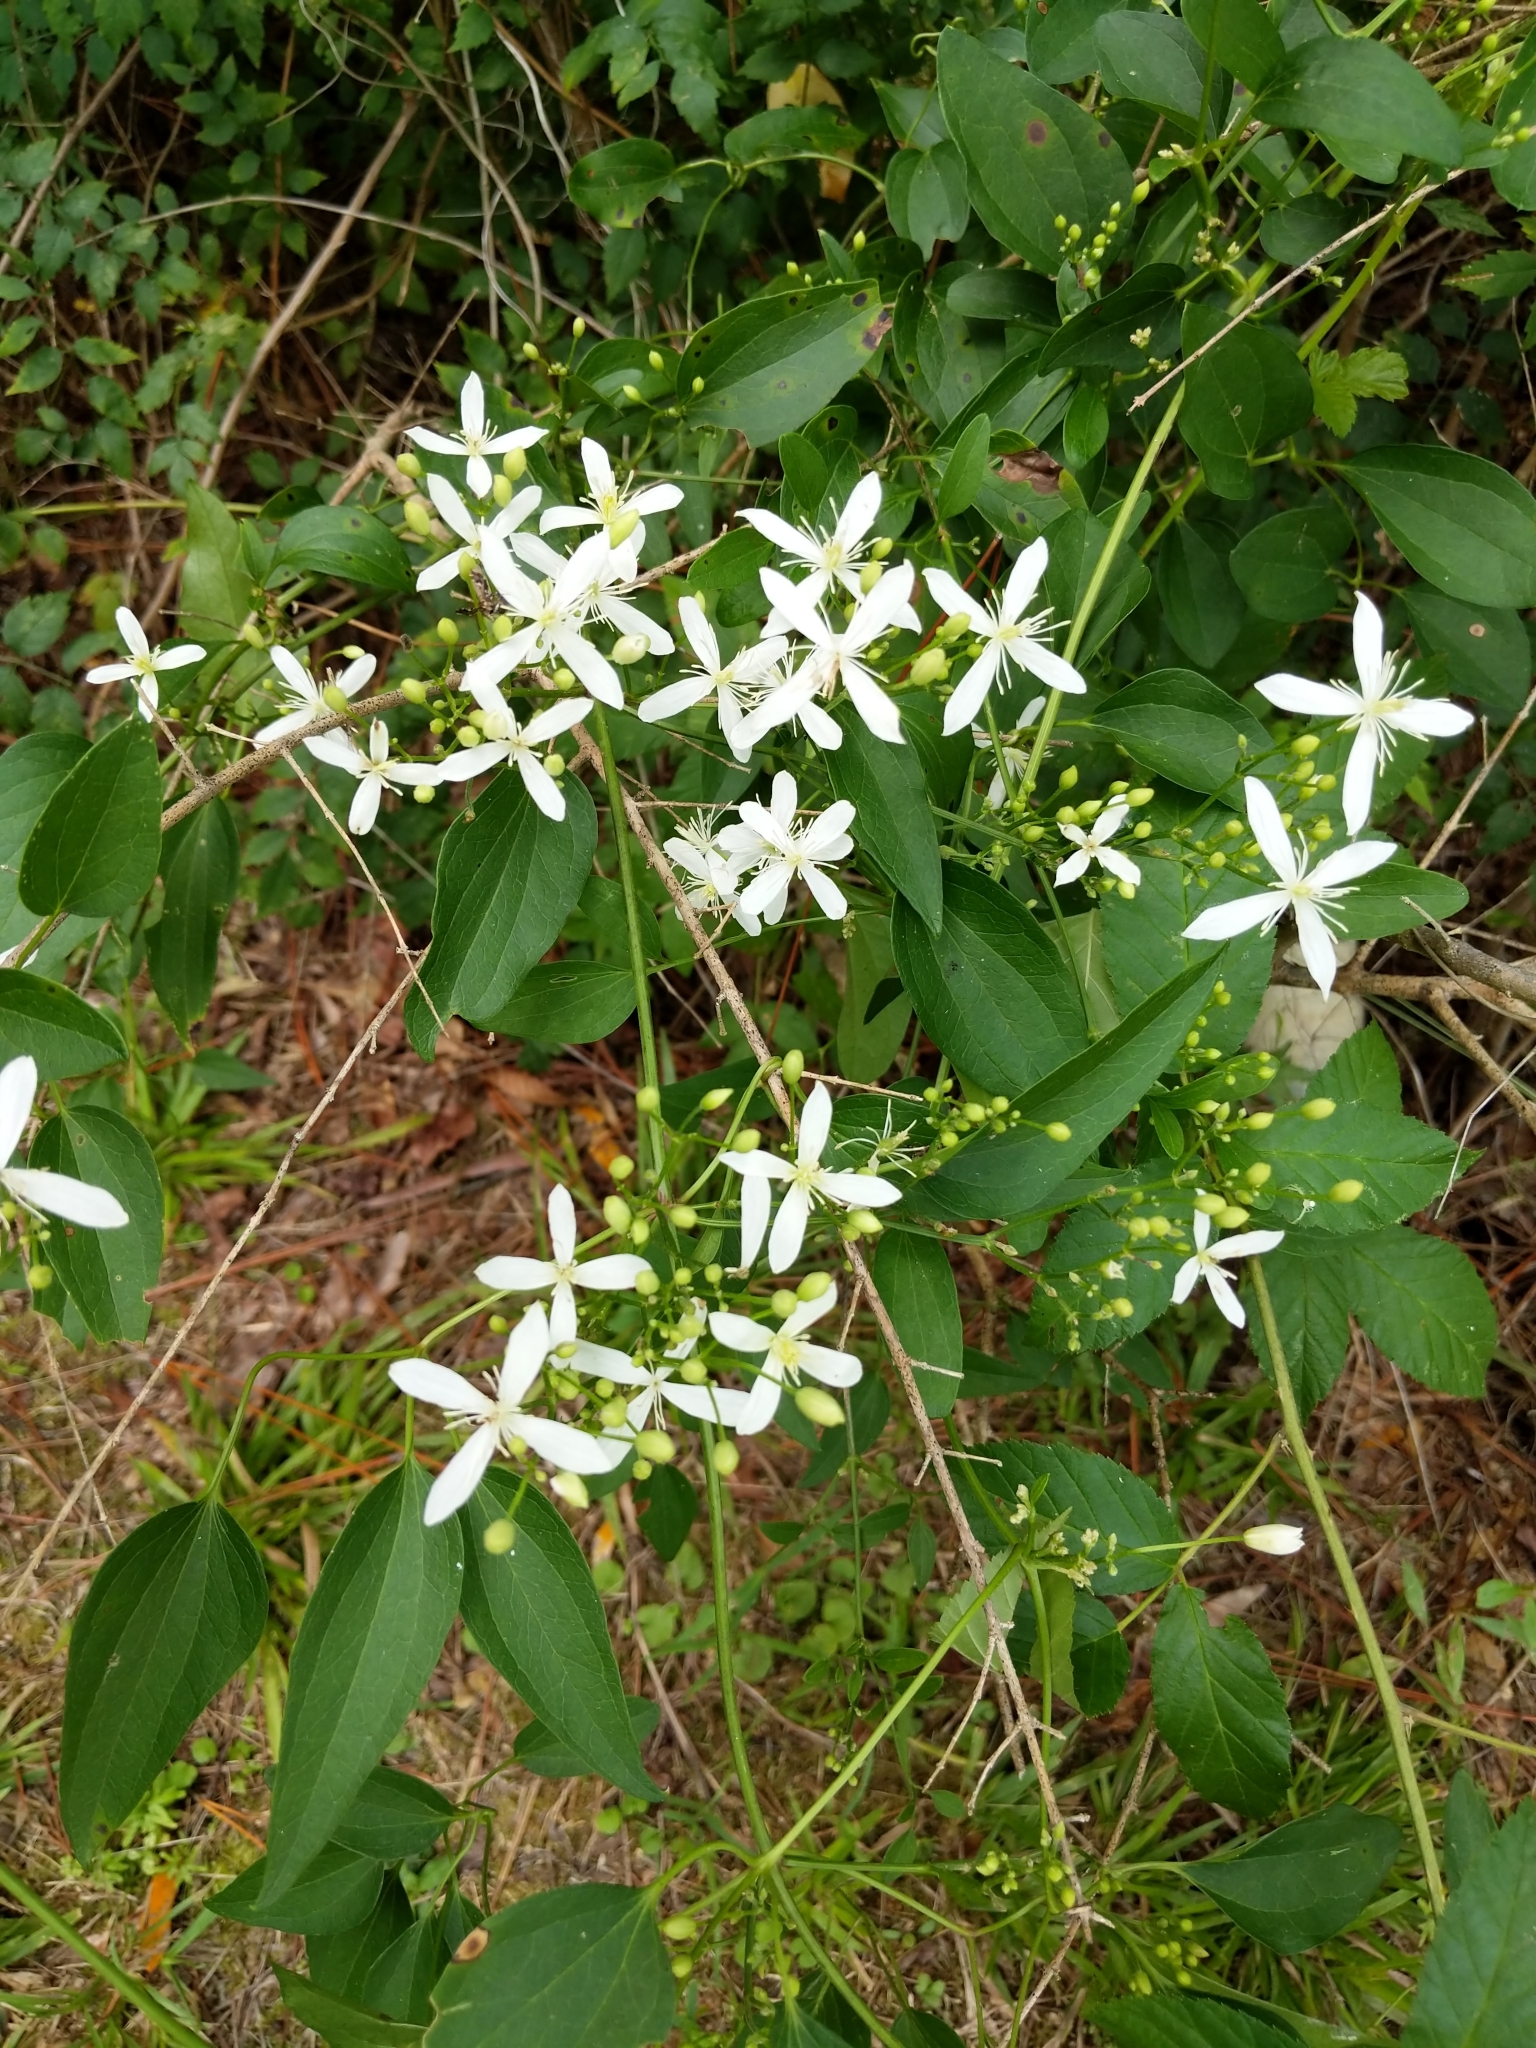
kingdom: Plantae
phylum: Tracheophyta
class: Magnoliopsida
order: Ranunculales
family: Ranunculaceae
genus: Clematis
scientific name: Clematis terniflora
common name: Sweet autumn clematis
